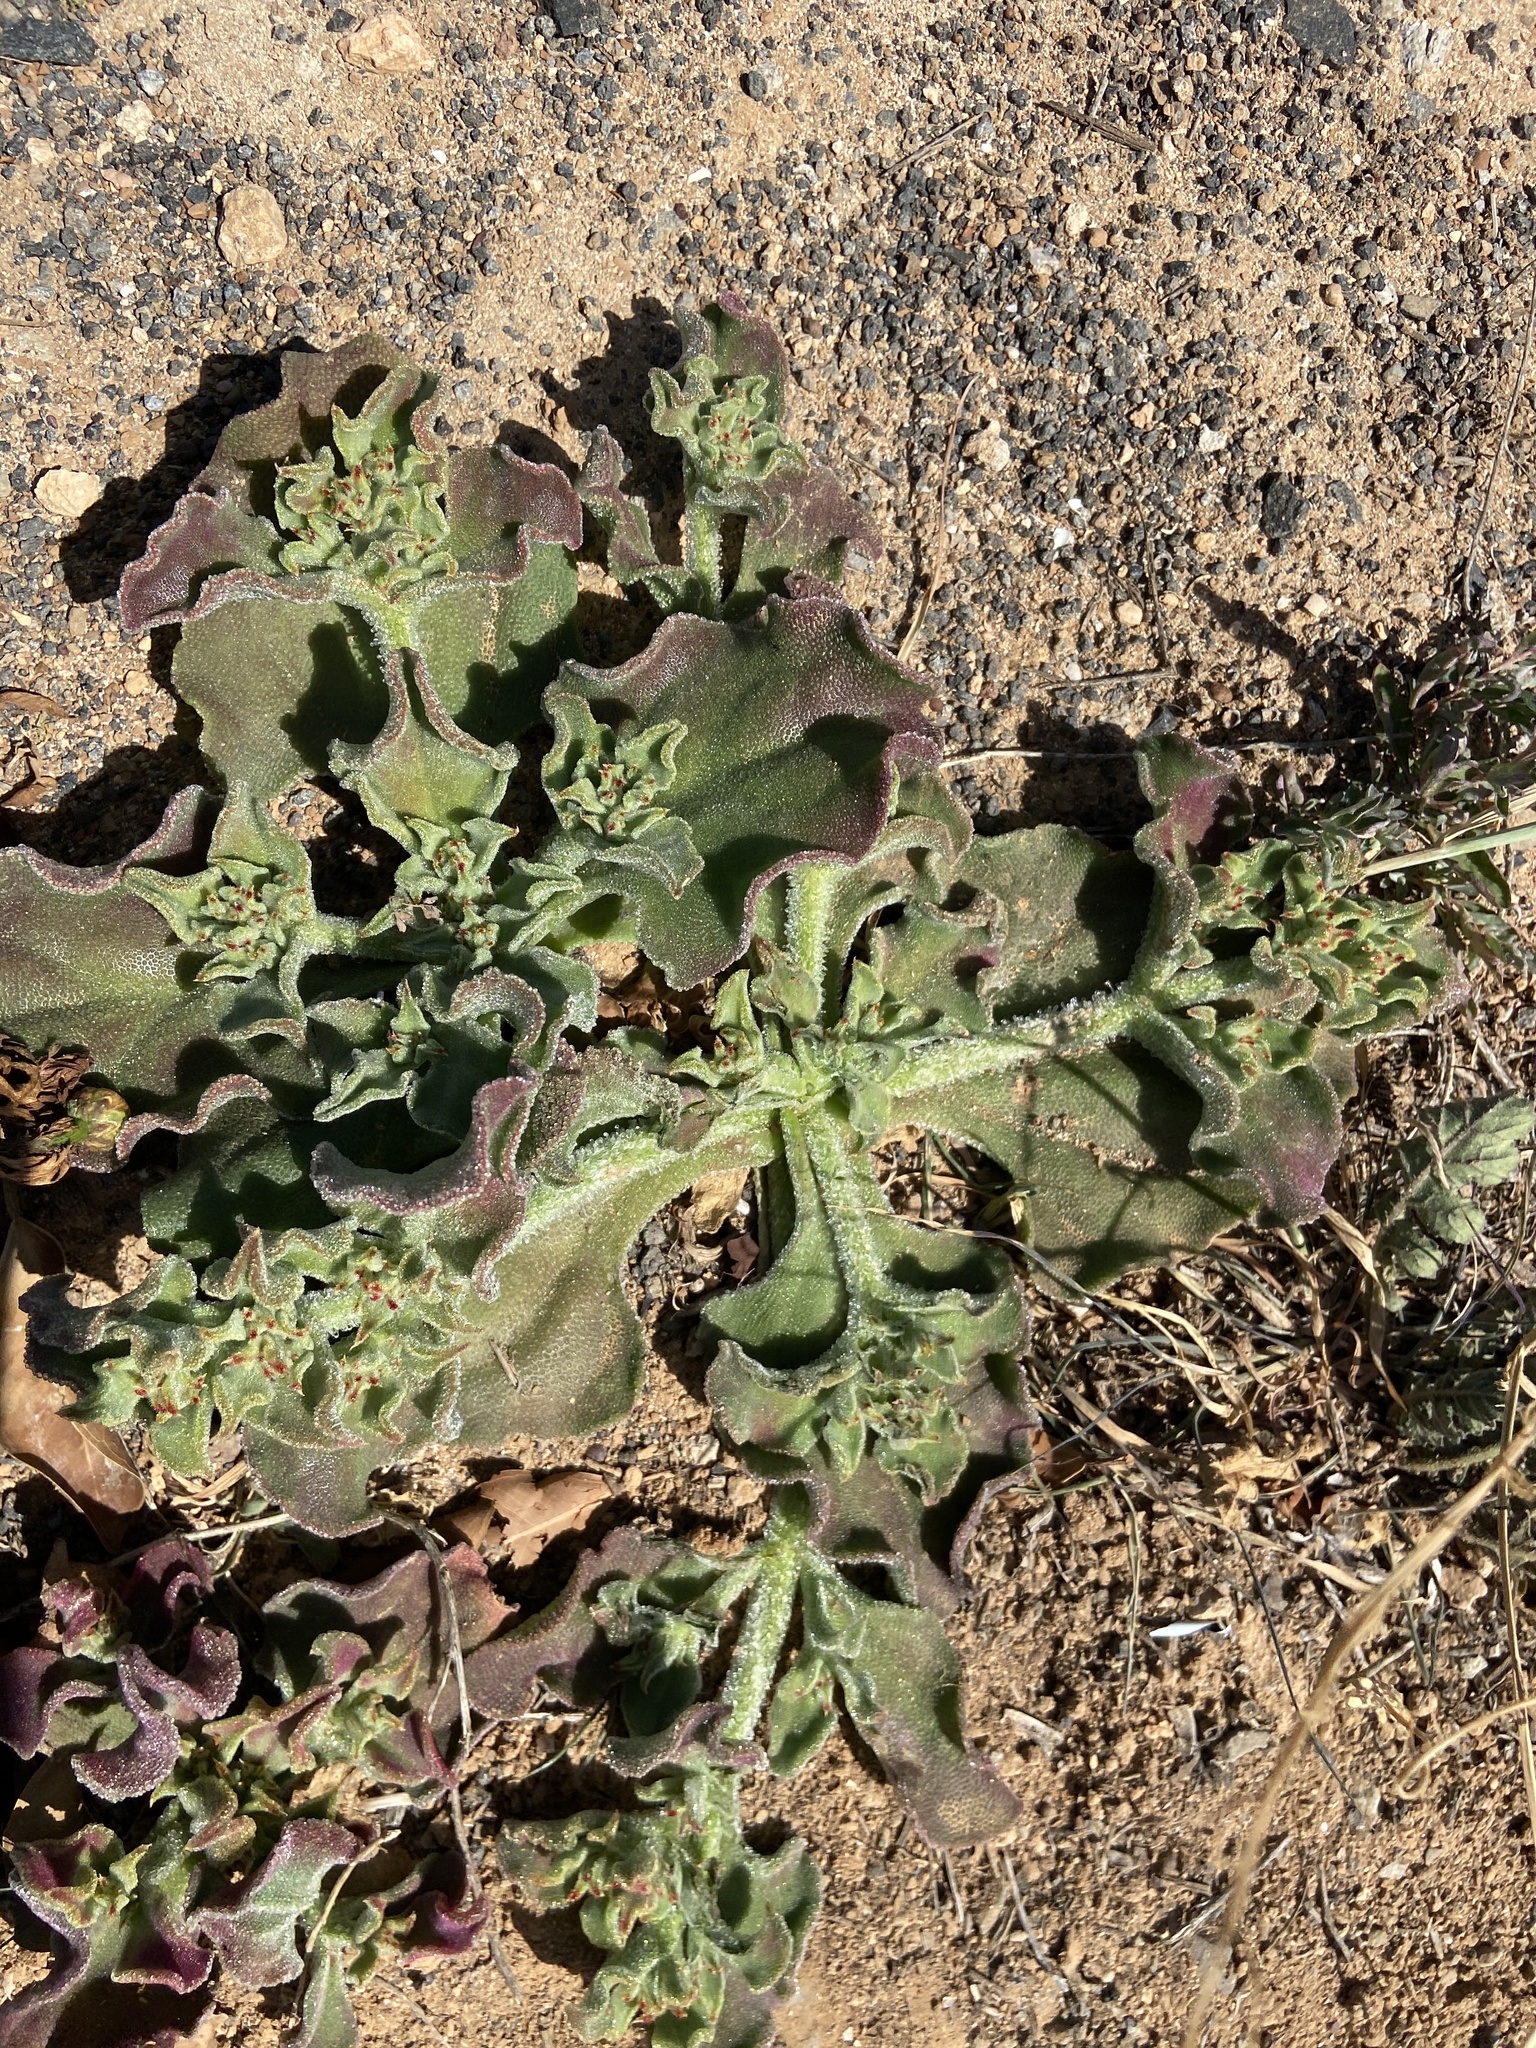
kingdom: Plantae
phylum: Tracheophyta
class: Magnoliopsida
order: Caryophyllales
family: Aizoaceae
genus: Mesembryanthemum
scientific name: Mesembryanthemum crystallinum
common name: Common iceplant
